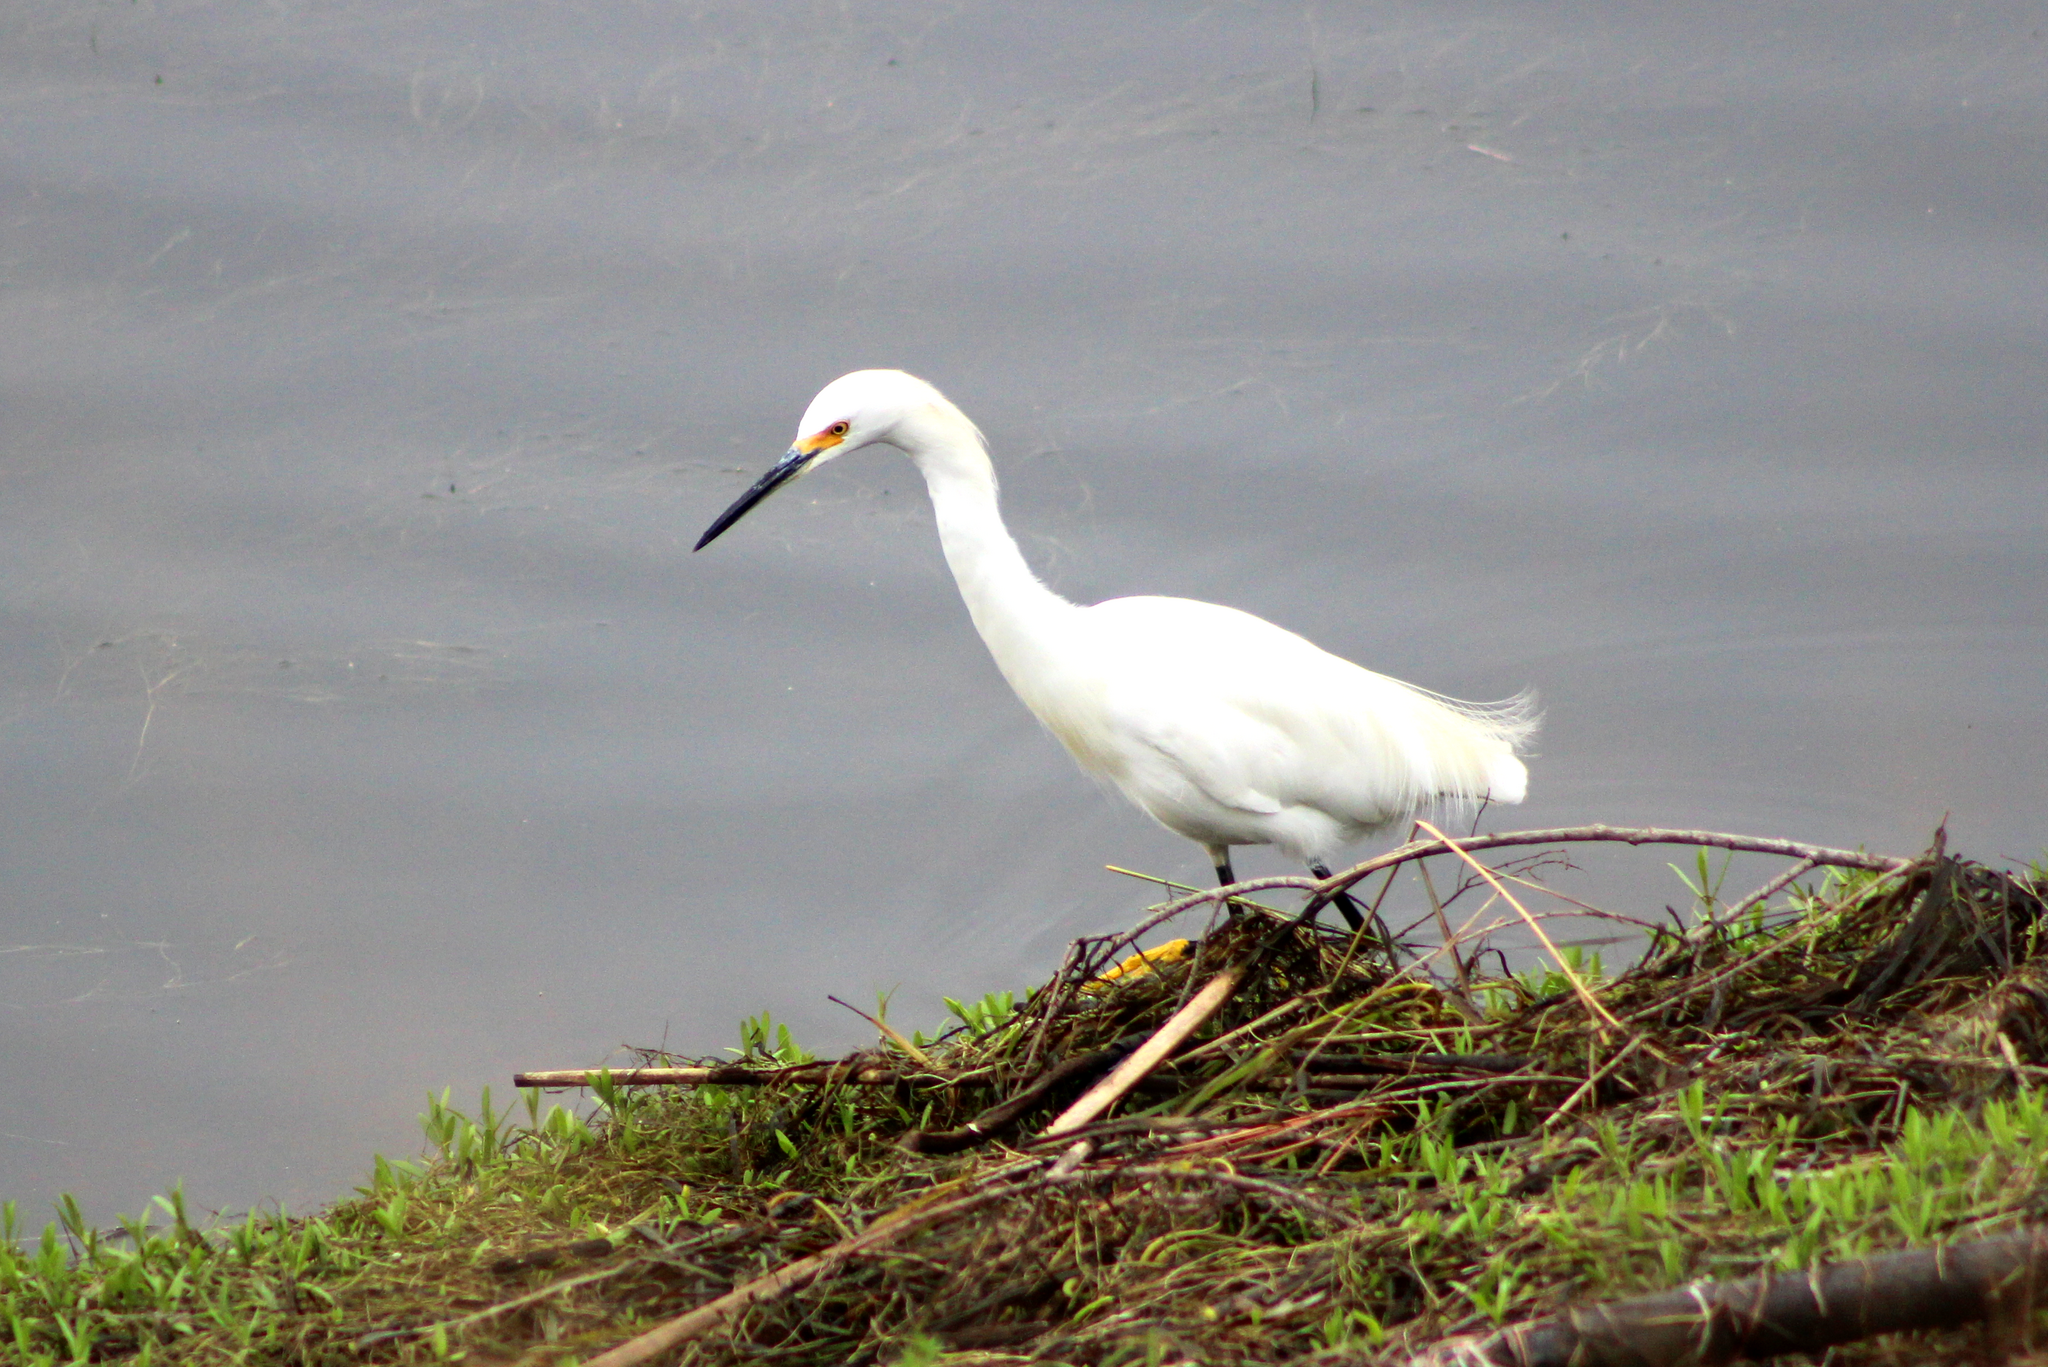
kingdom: Animalia
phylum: Chordata
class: Aves
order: Pelecaniformes
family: Ardeidae
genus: Egretta
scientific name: Egretta thula
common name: Snowy egret
